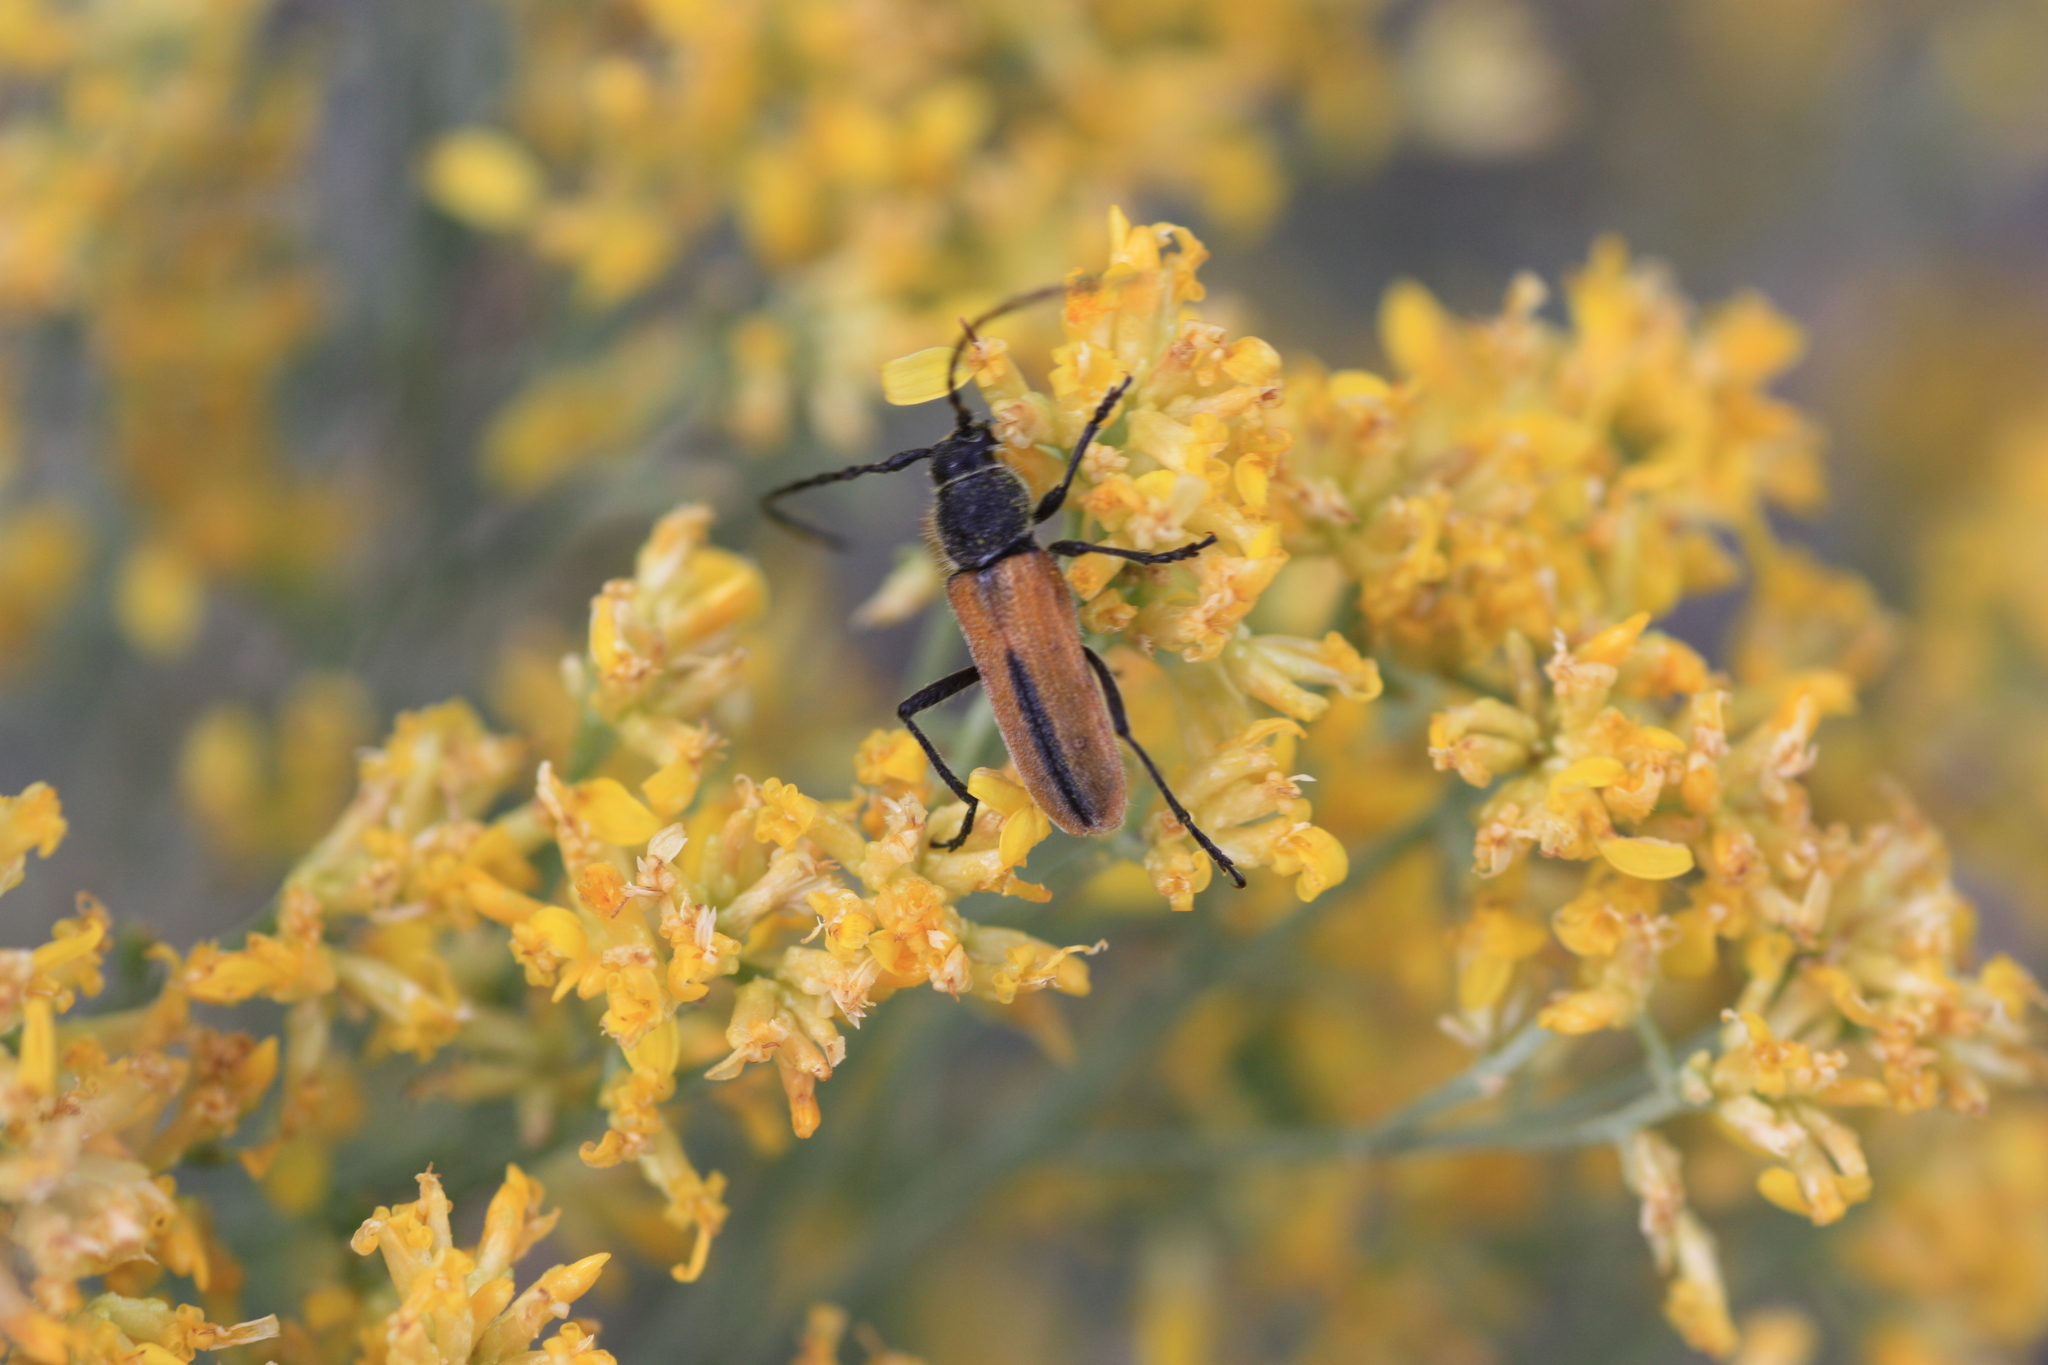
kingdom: Animalia
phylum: Arthropoda
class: Insecta
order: Coleoptera
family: Cerambycidae
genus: Crossidius
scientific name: Crossidius pulchellus
